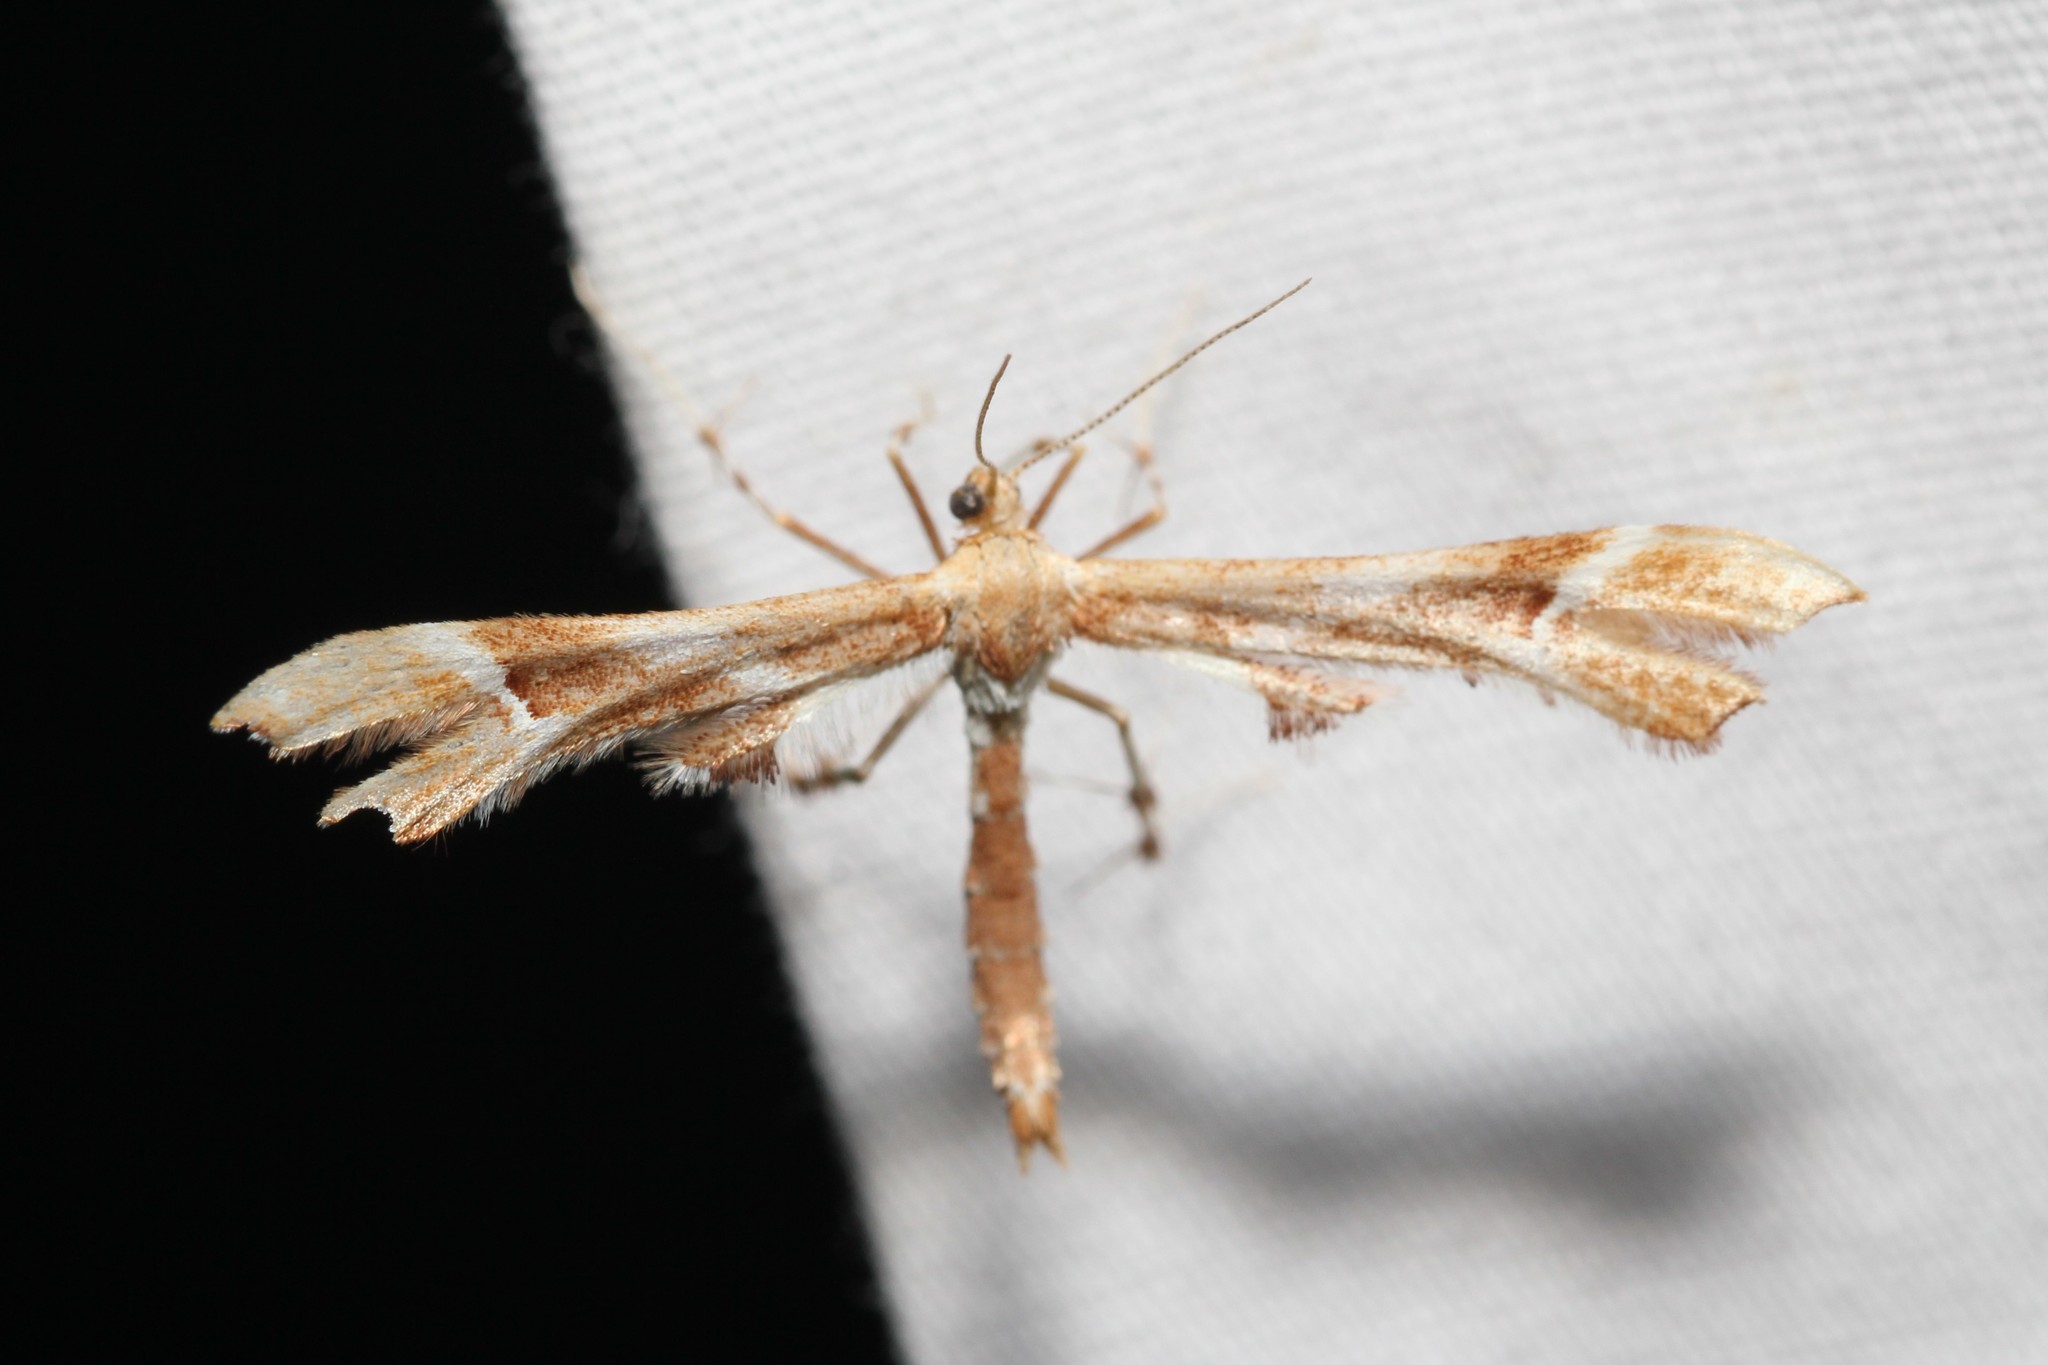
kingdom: Animalia
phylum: Arthropoda
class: Insecta
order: Lepidoptera
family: Pterophoridae
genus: Cnaemidophorus
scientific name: Cnaemidophorus rhododactyla
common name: Rose plume
